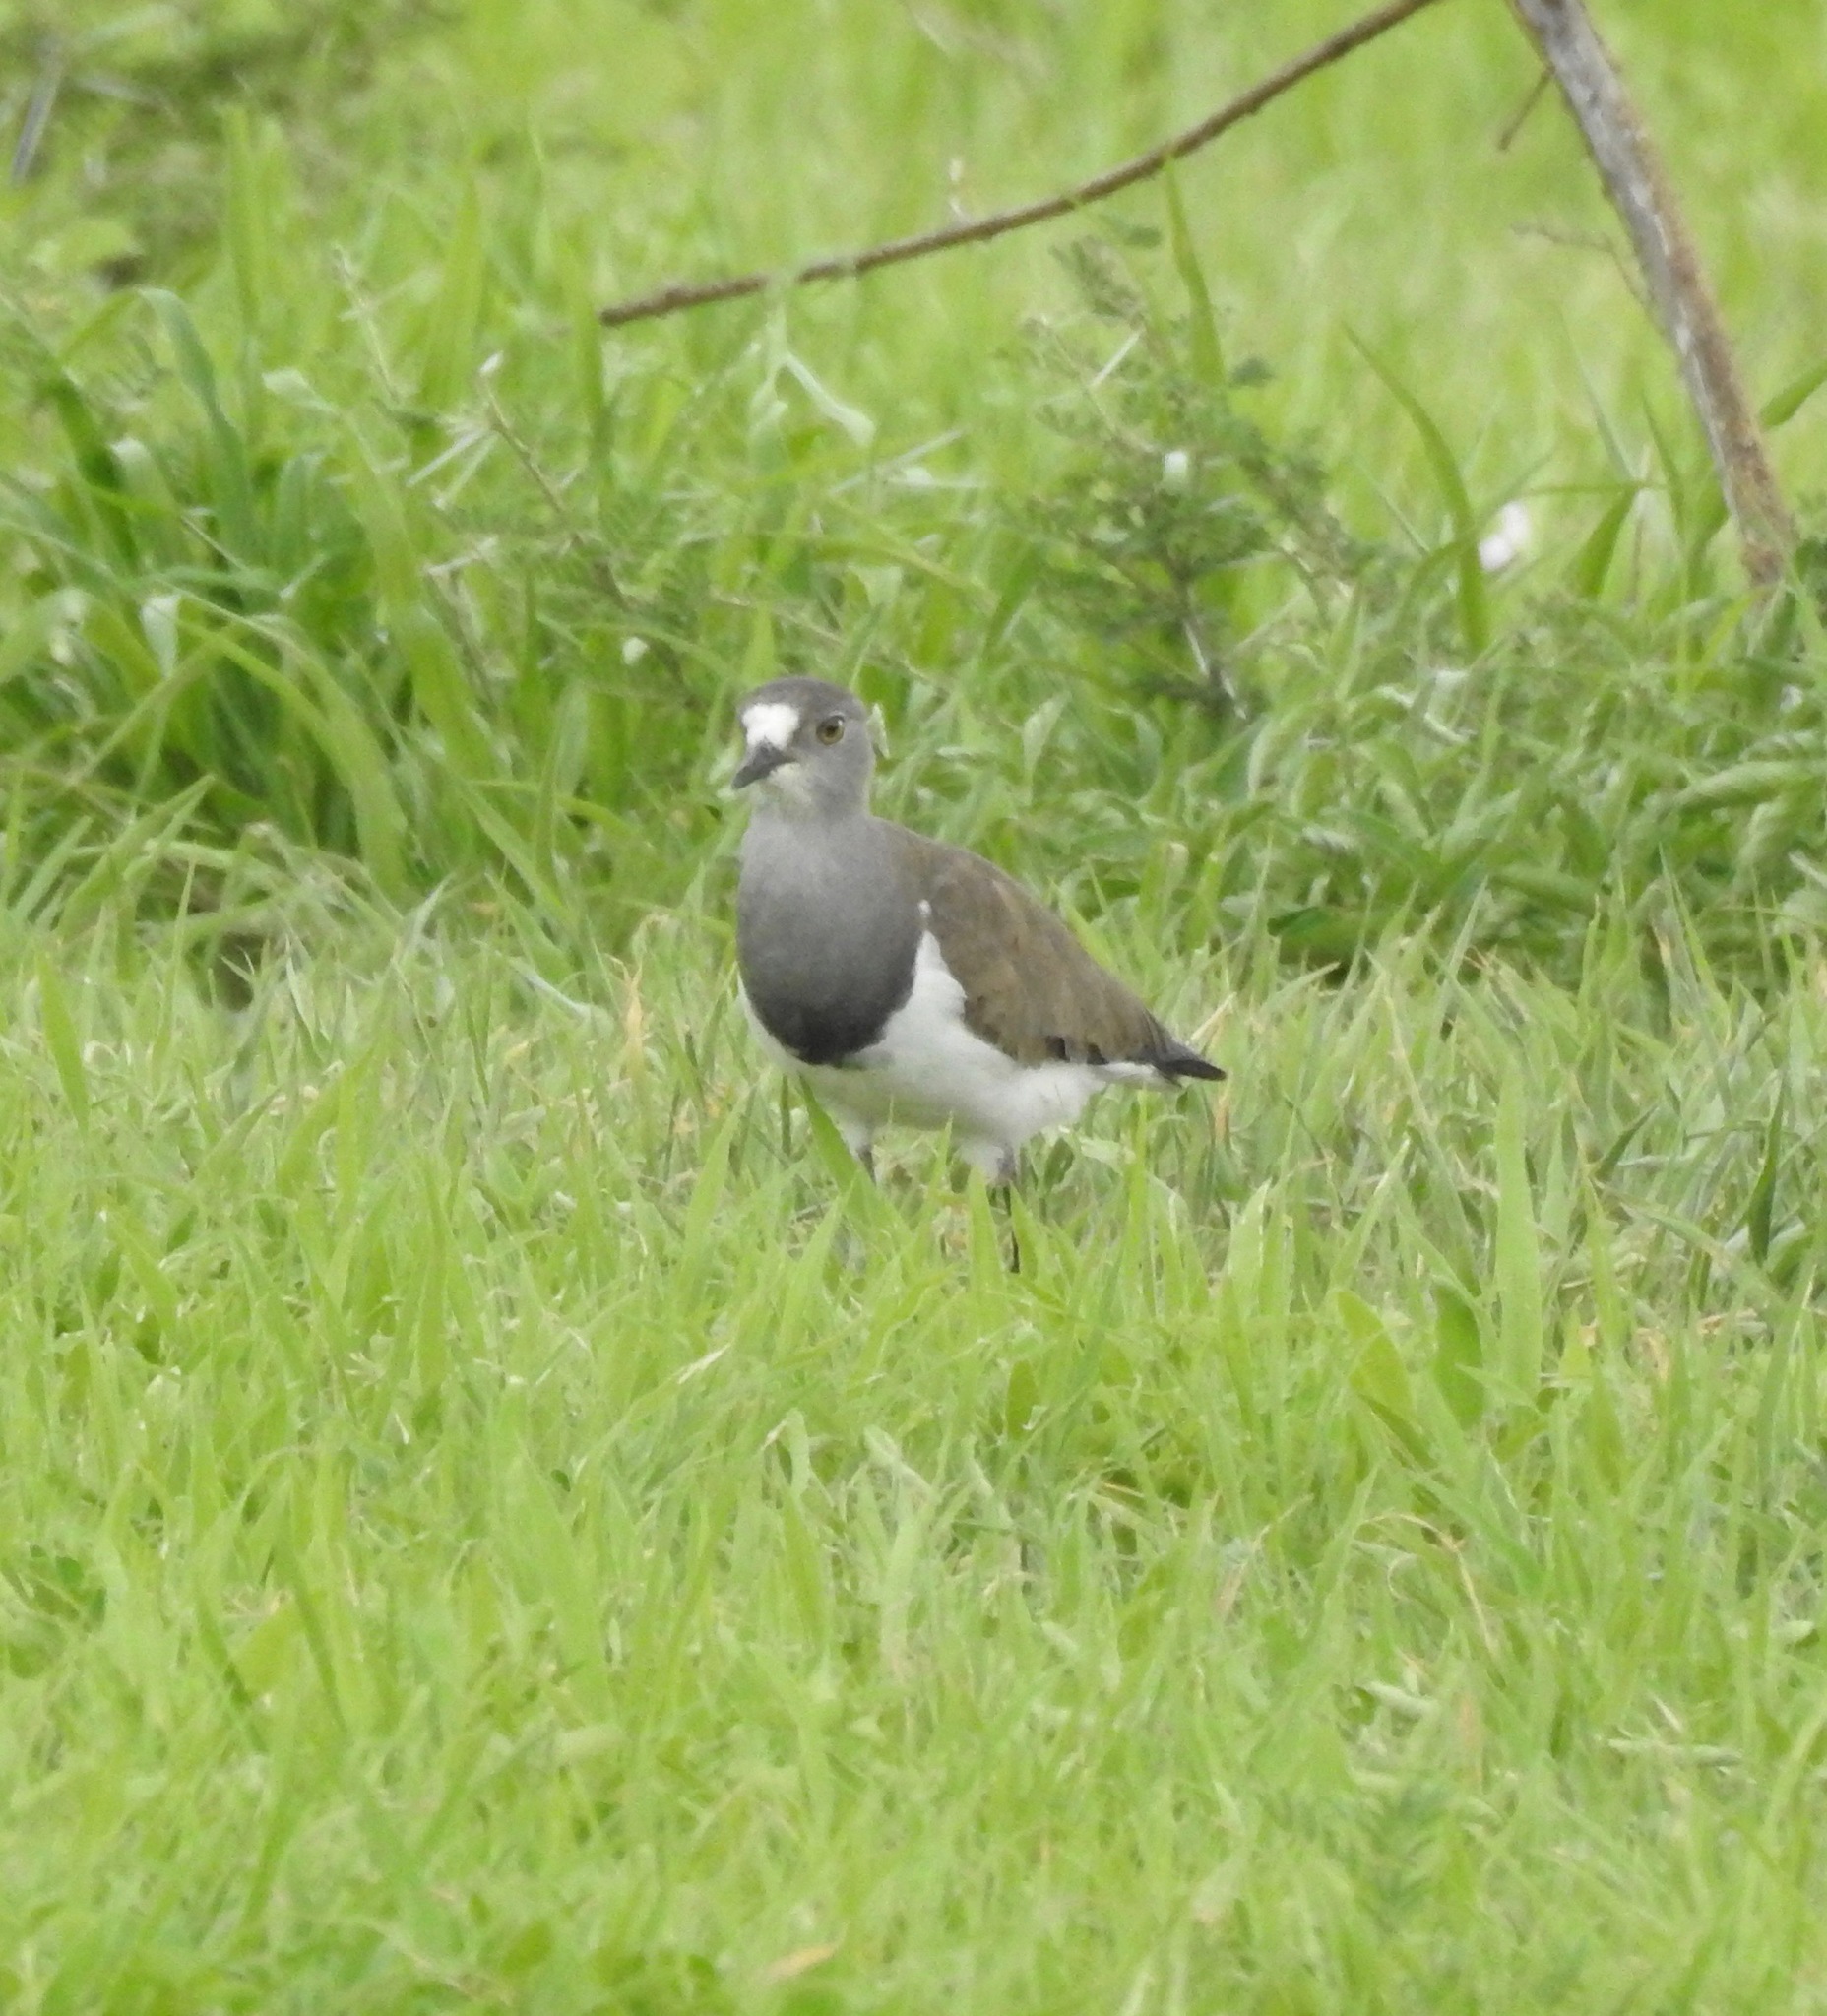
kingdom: Animalia
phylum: Chordata
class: Aves
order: Charadriiformes
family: Charadriidae
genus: Vanellus
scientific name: Vanellus lugubris
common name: Senegal lapwing
